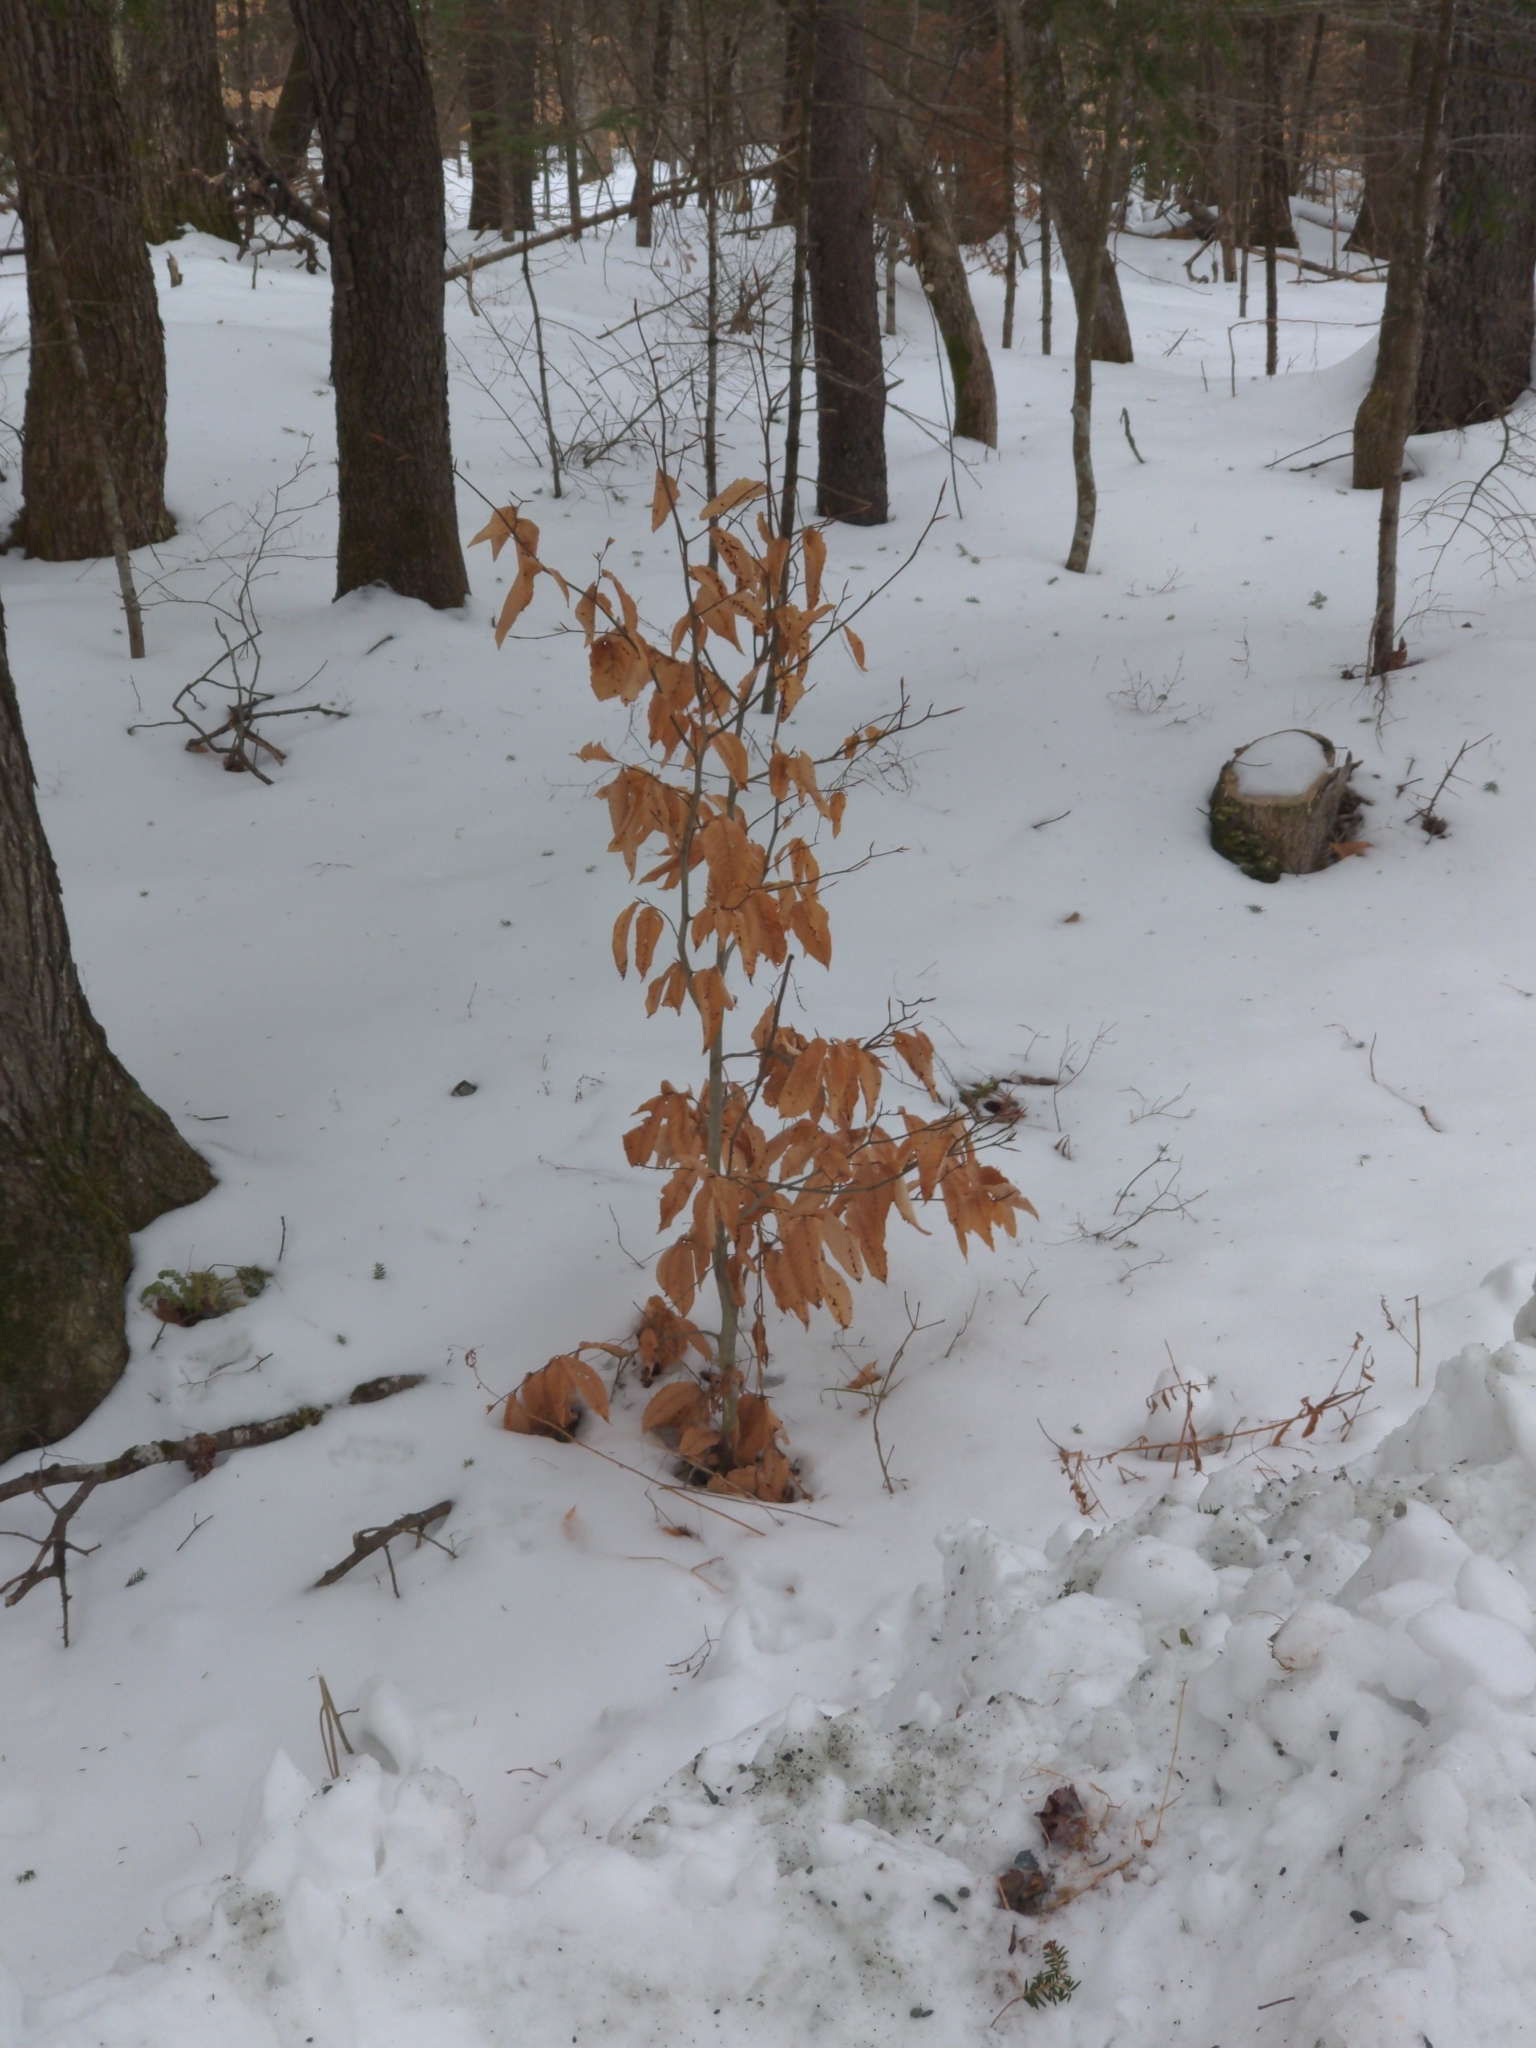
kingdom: Plantae
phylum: Tracheophyta
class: Magnoliopsida
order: Fagales
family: Fagaceae
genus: Fagus
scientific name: Fagus grandifolia
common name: American beech
